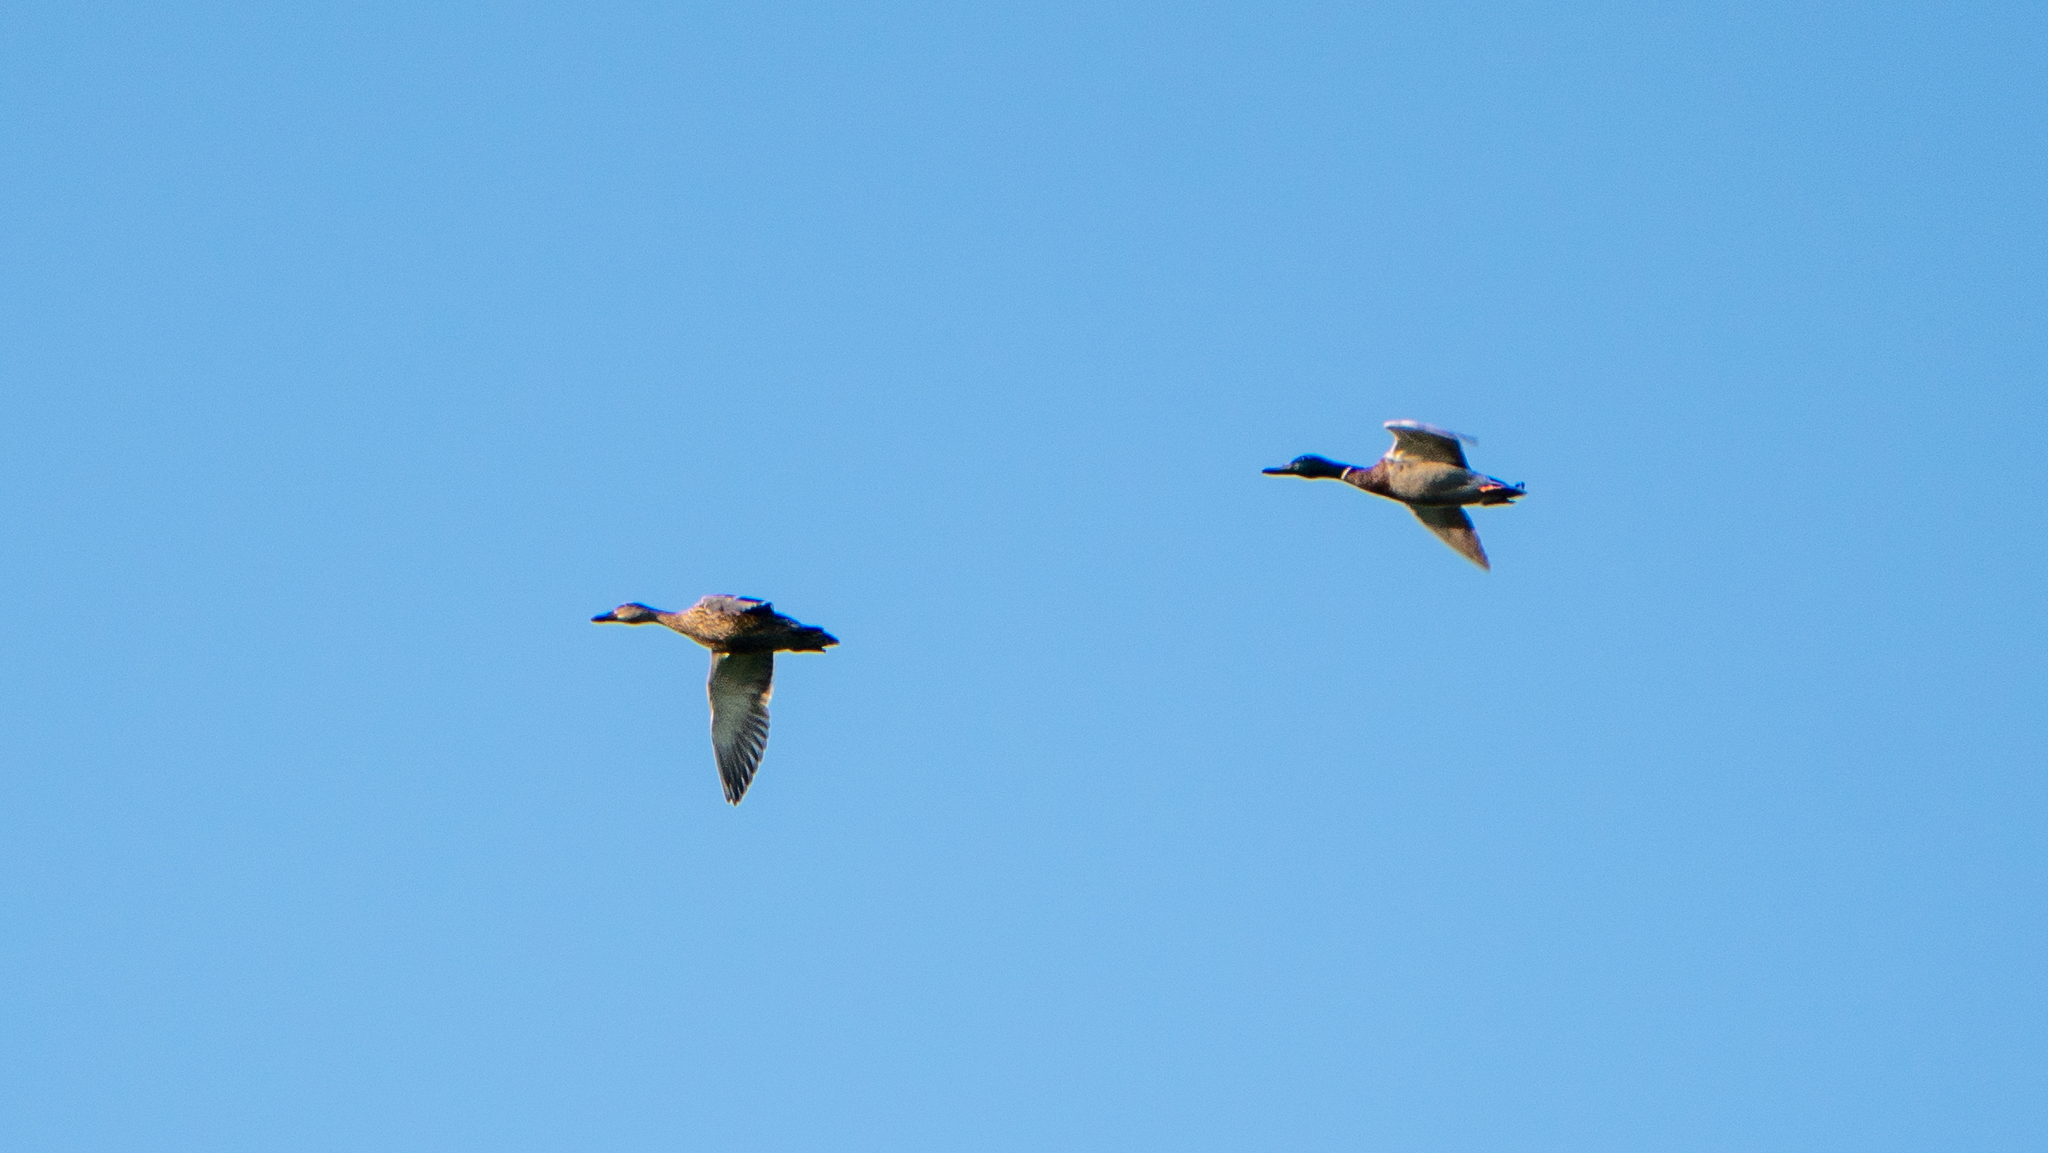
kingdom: Animalia
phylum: Chordata
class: Aves
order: Anseriformes
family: Anatidae
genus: Anas
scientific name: Anas platyrhynchos
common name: Mallard
